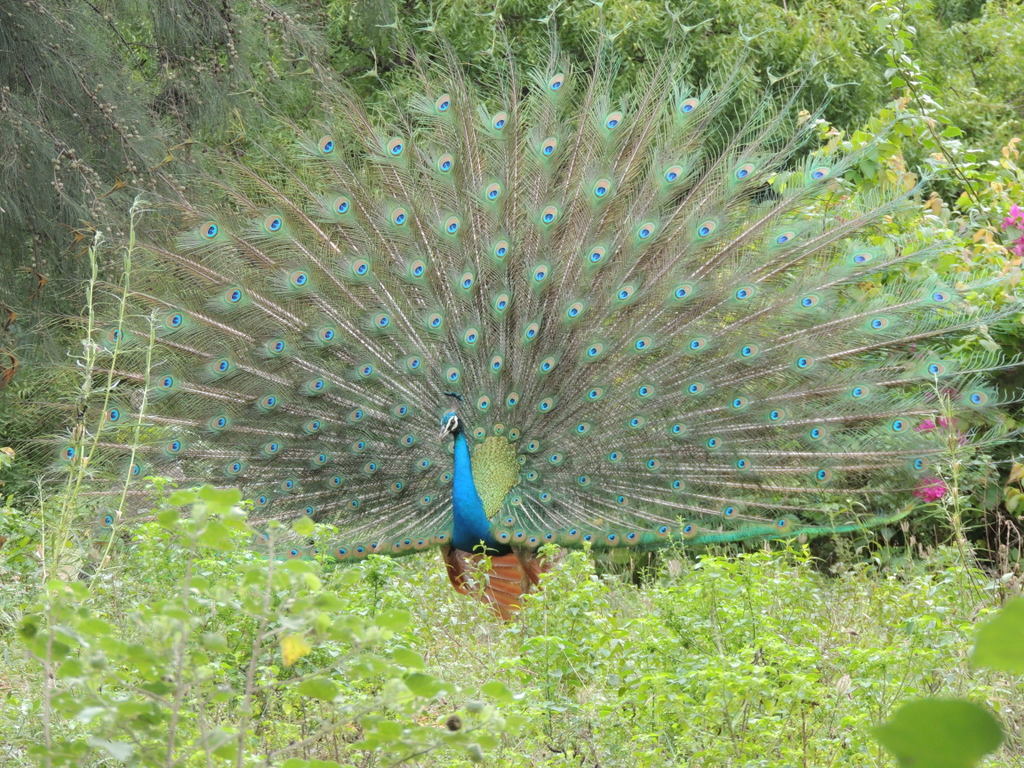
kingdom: Animalia
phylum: Chordata
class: Aves
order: Galliformes
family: Phasianidae
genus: Pavo
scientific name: Pavo cristatus
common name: Indian peafowl
